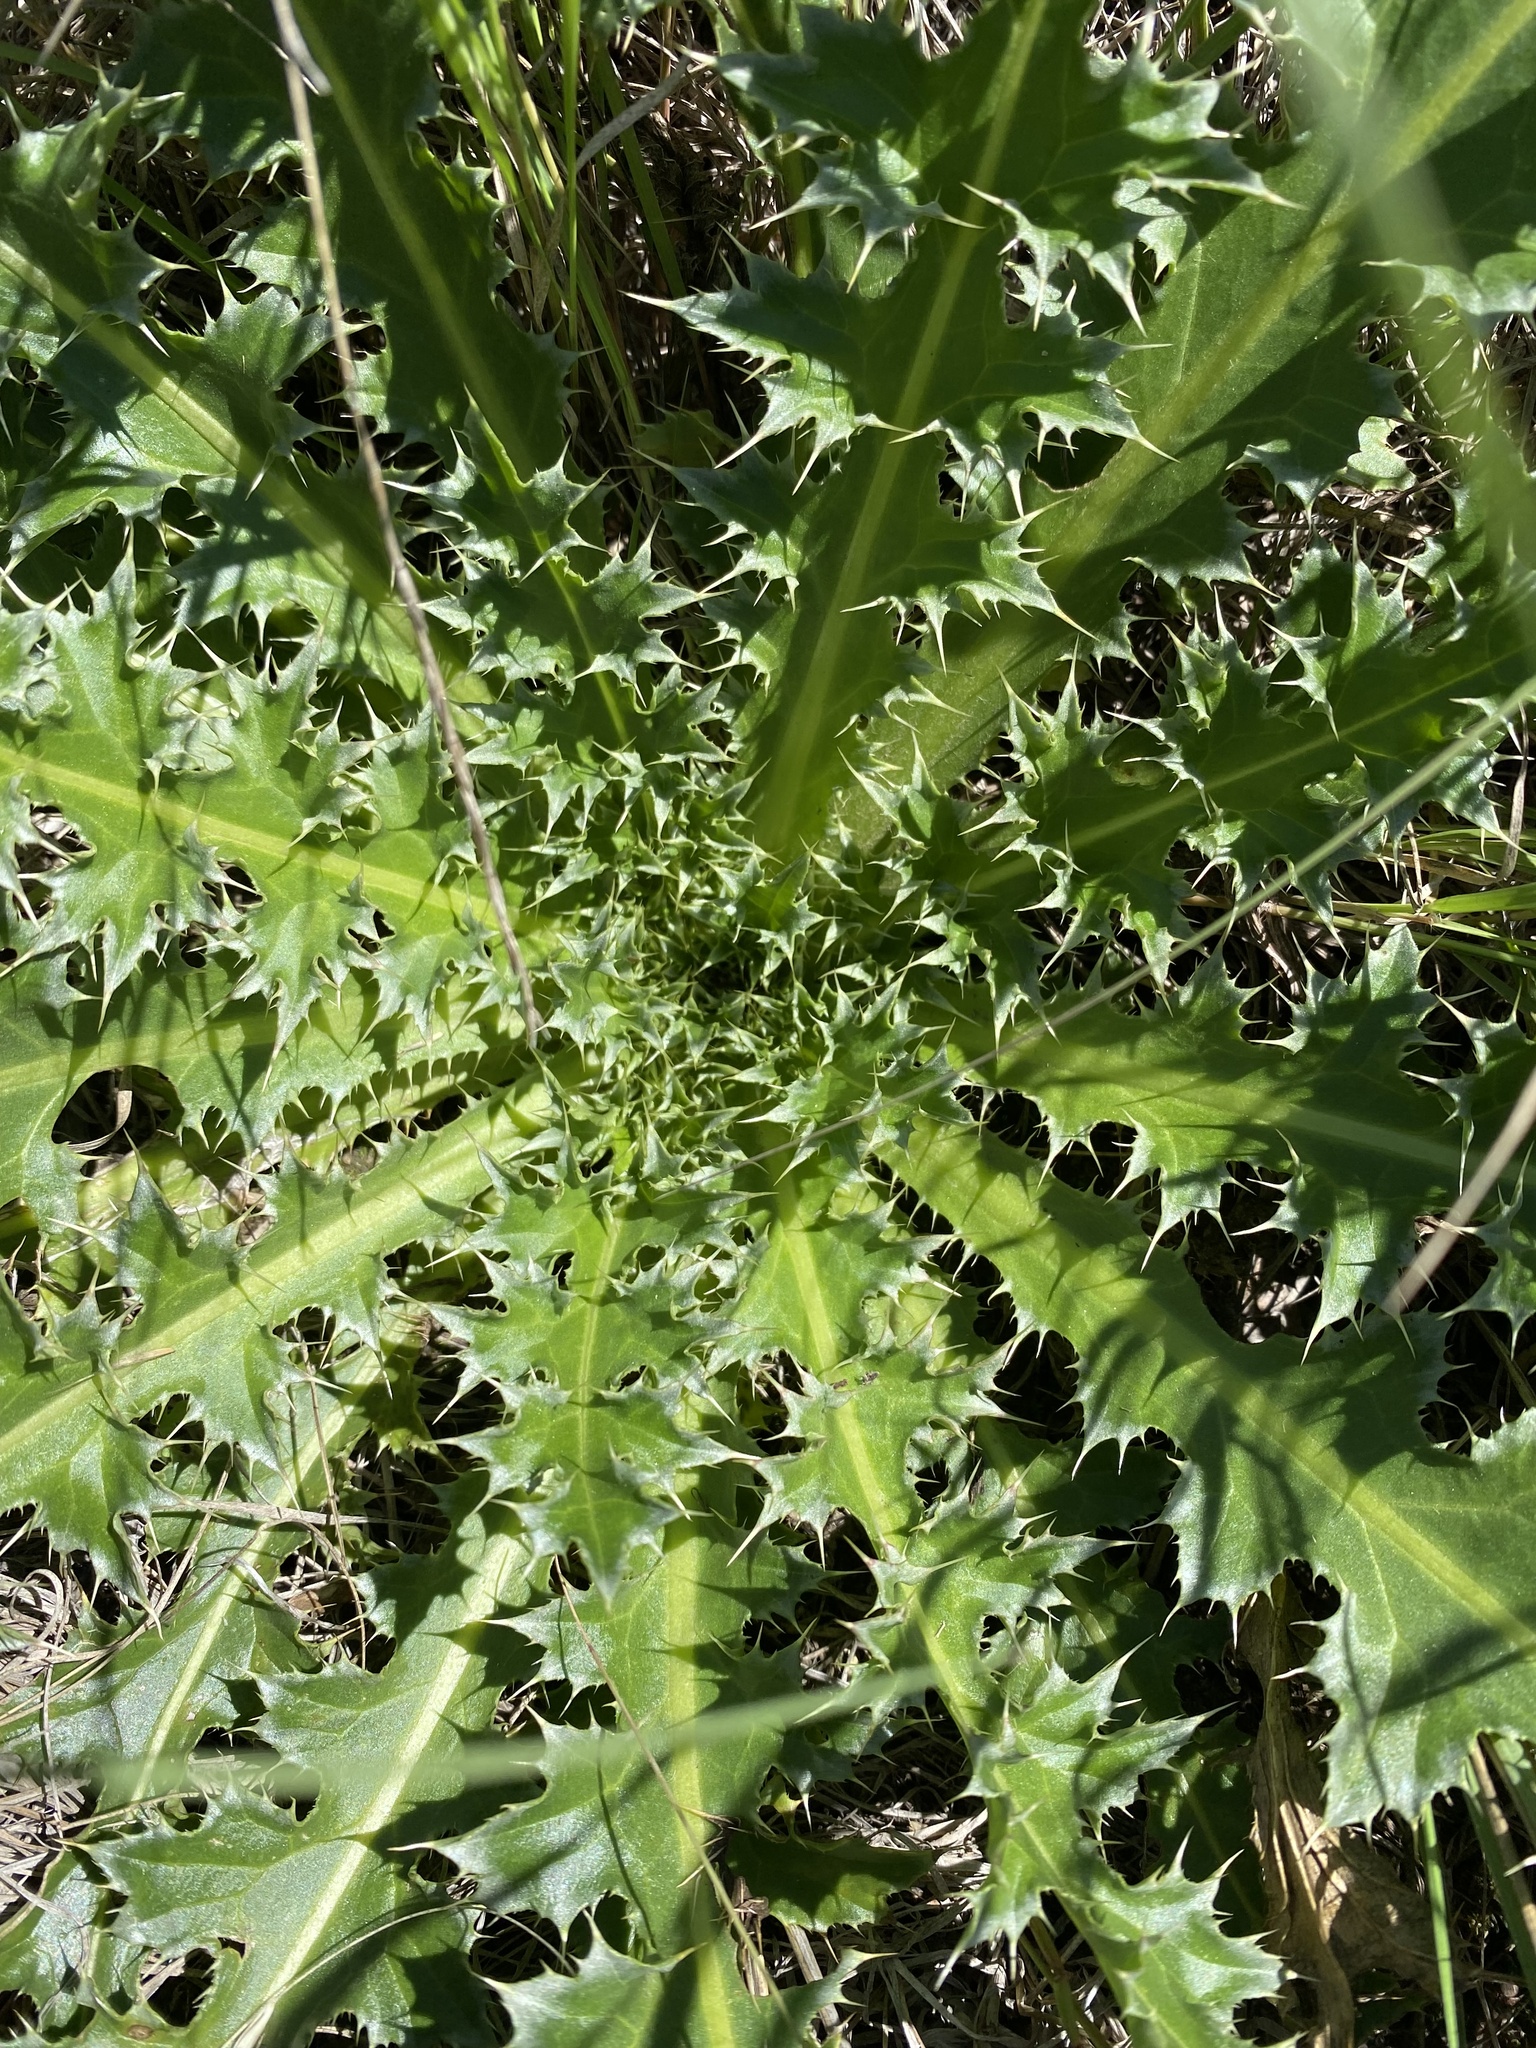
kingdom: Plantae
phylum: Tracheophyta
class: Magnoliopsida
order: Asterales
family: Asteraceae
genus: Carduus
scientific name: Carduus nutans
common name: Musk thistle
